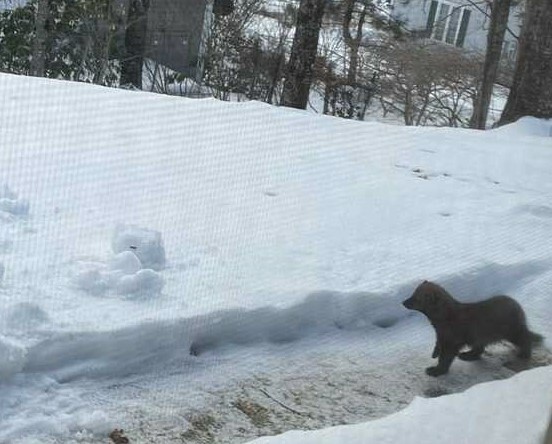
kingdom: Animalia
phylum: Chordata
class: Mammalia
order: Carnivora
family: Mustelidae
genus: Pekania
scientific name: Pekania pennanti
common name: Fisher
